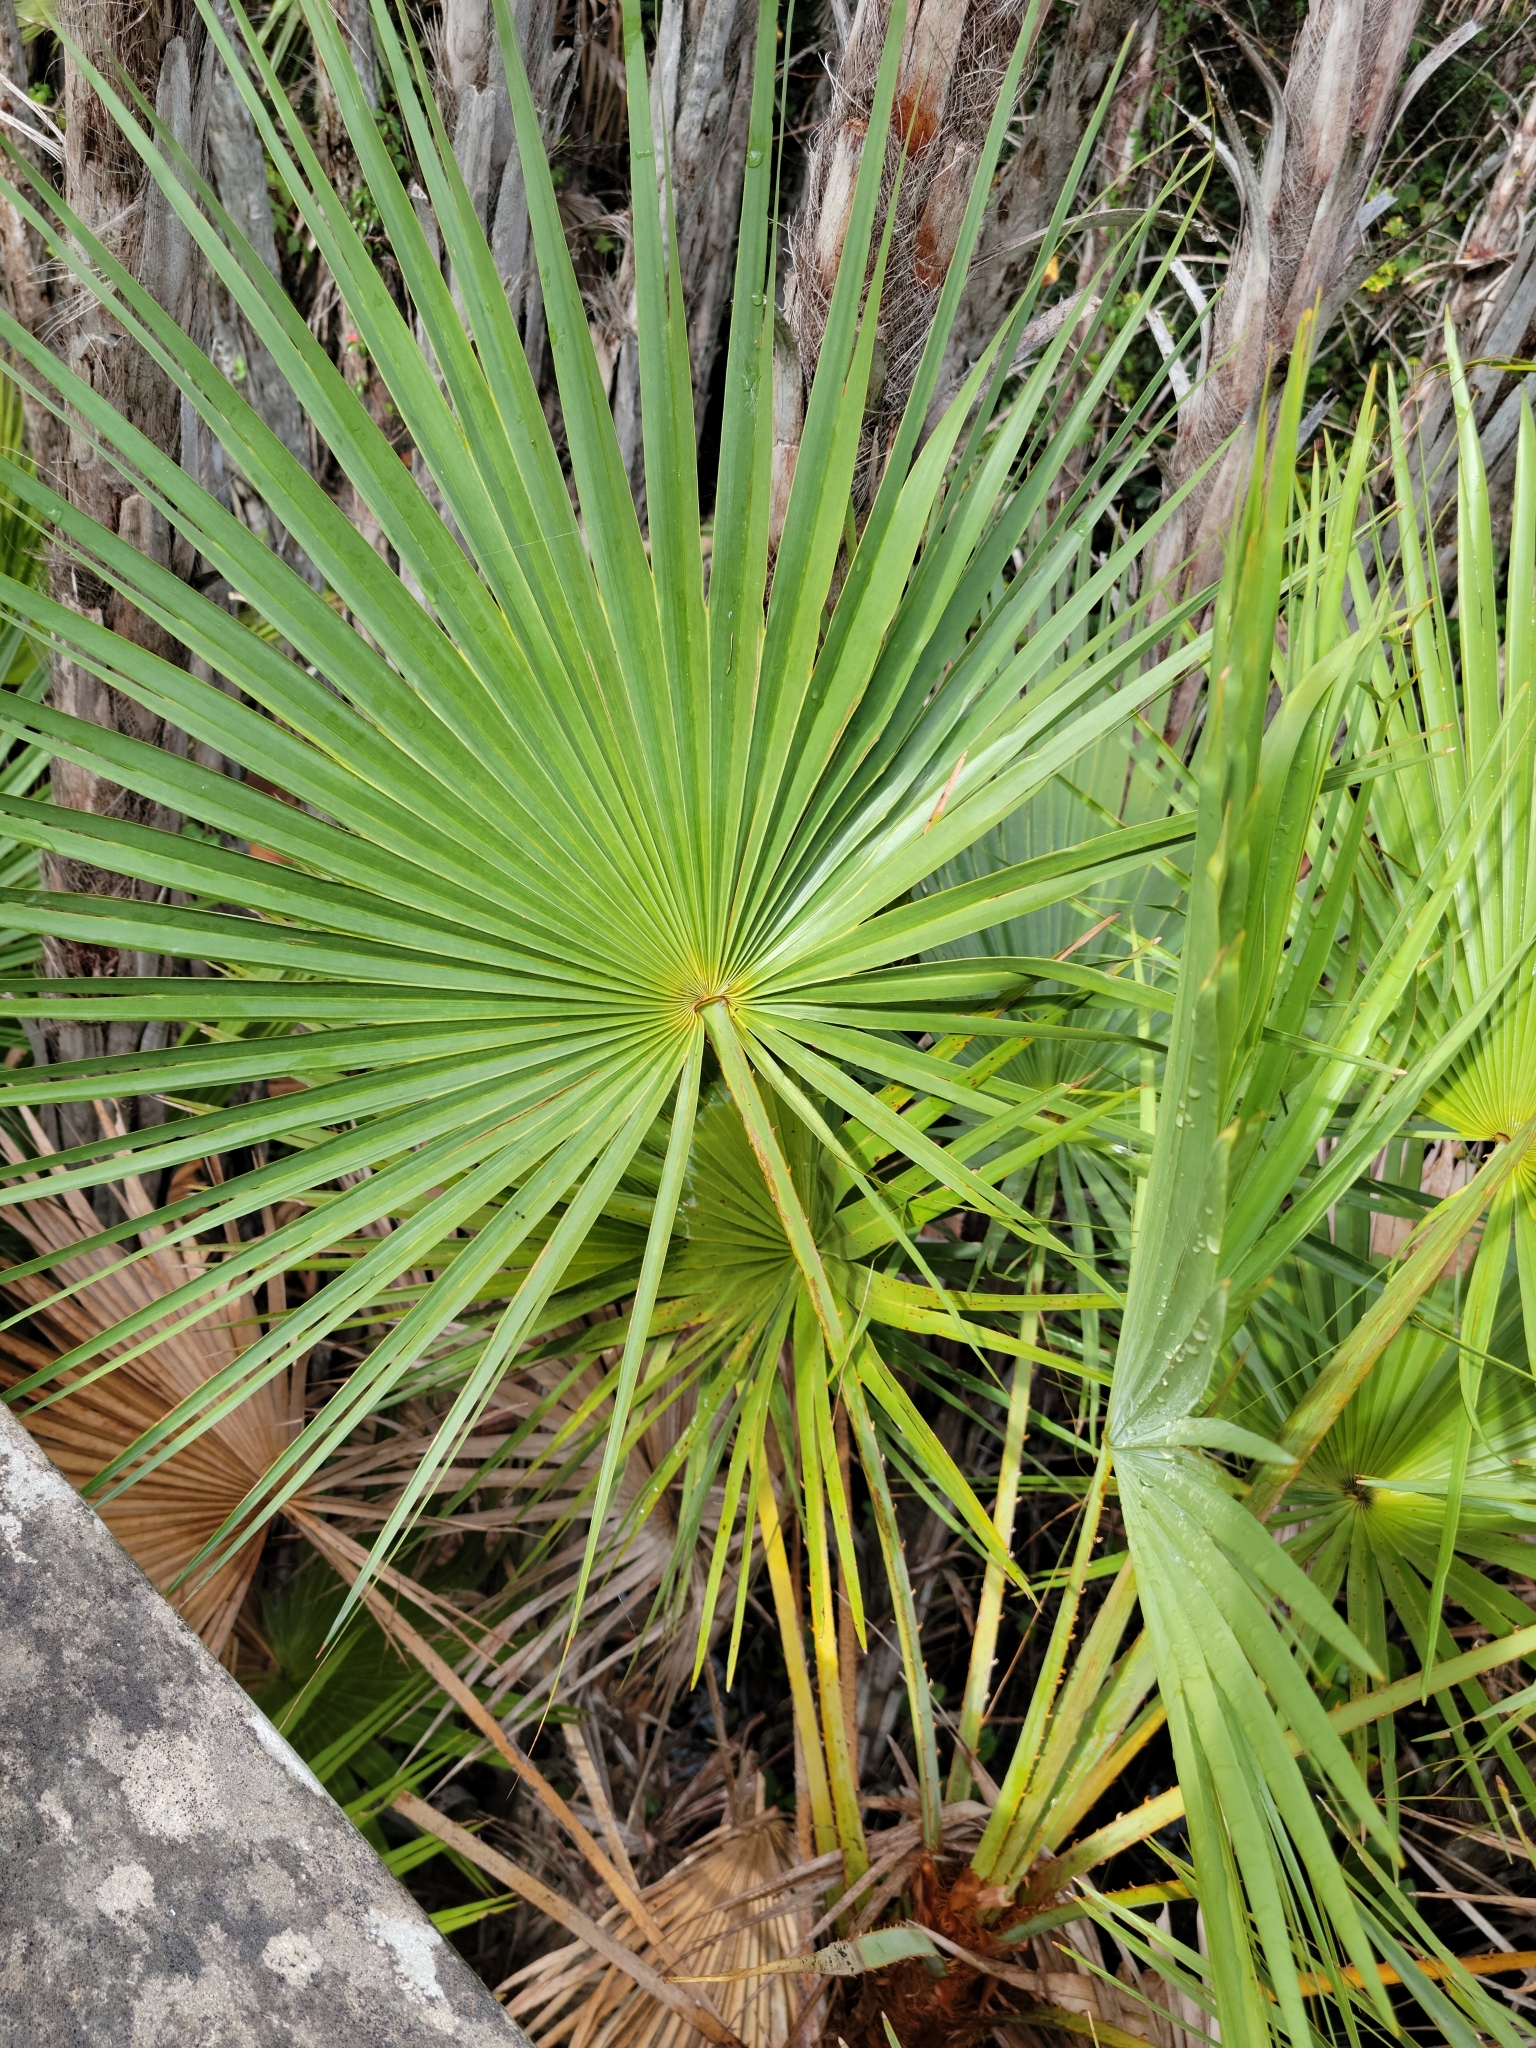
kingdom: Plantae
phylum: Tracheophyta
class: Liliopsida
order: Arecales
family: Arecaceae
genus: Acoelorraphe
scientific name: Acoelorraphe wrightii
